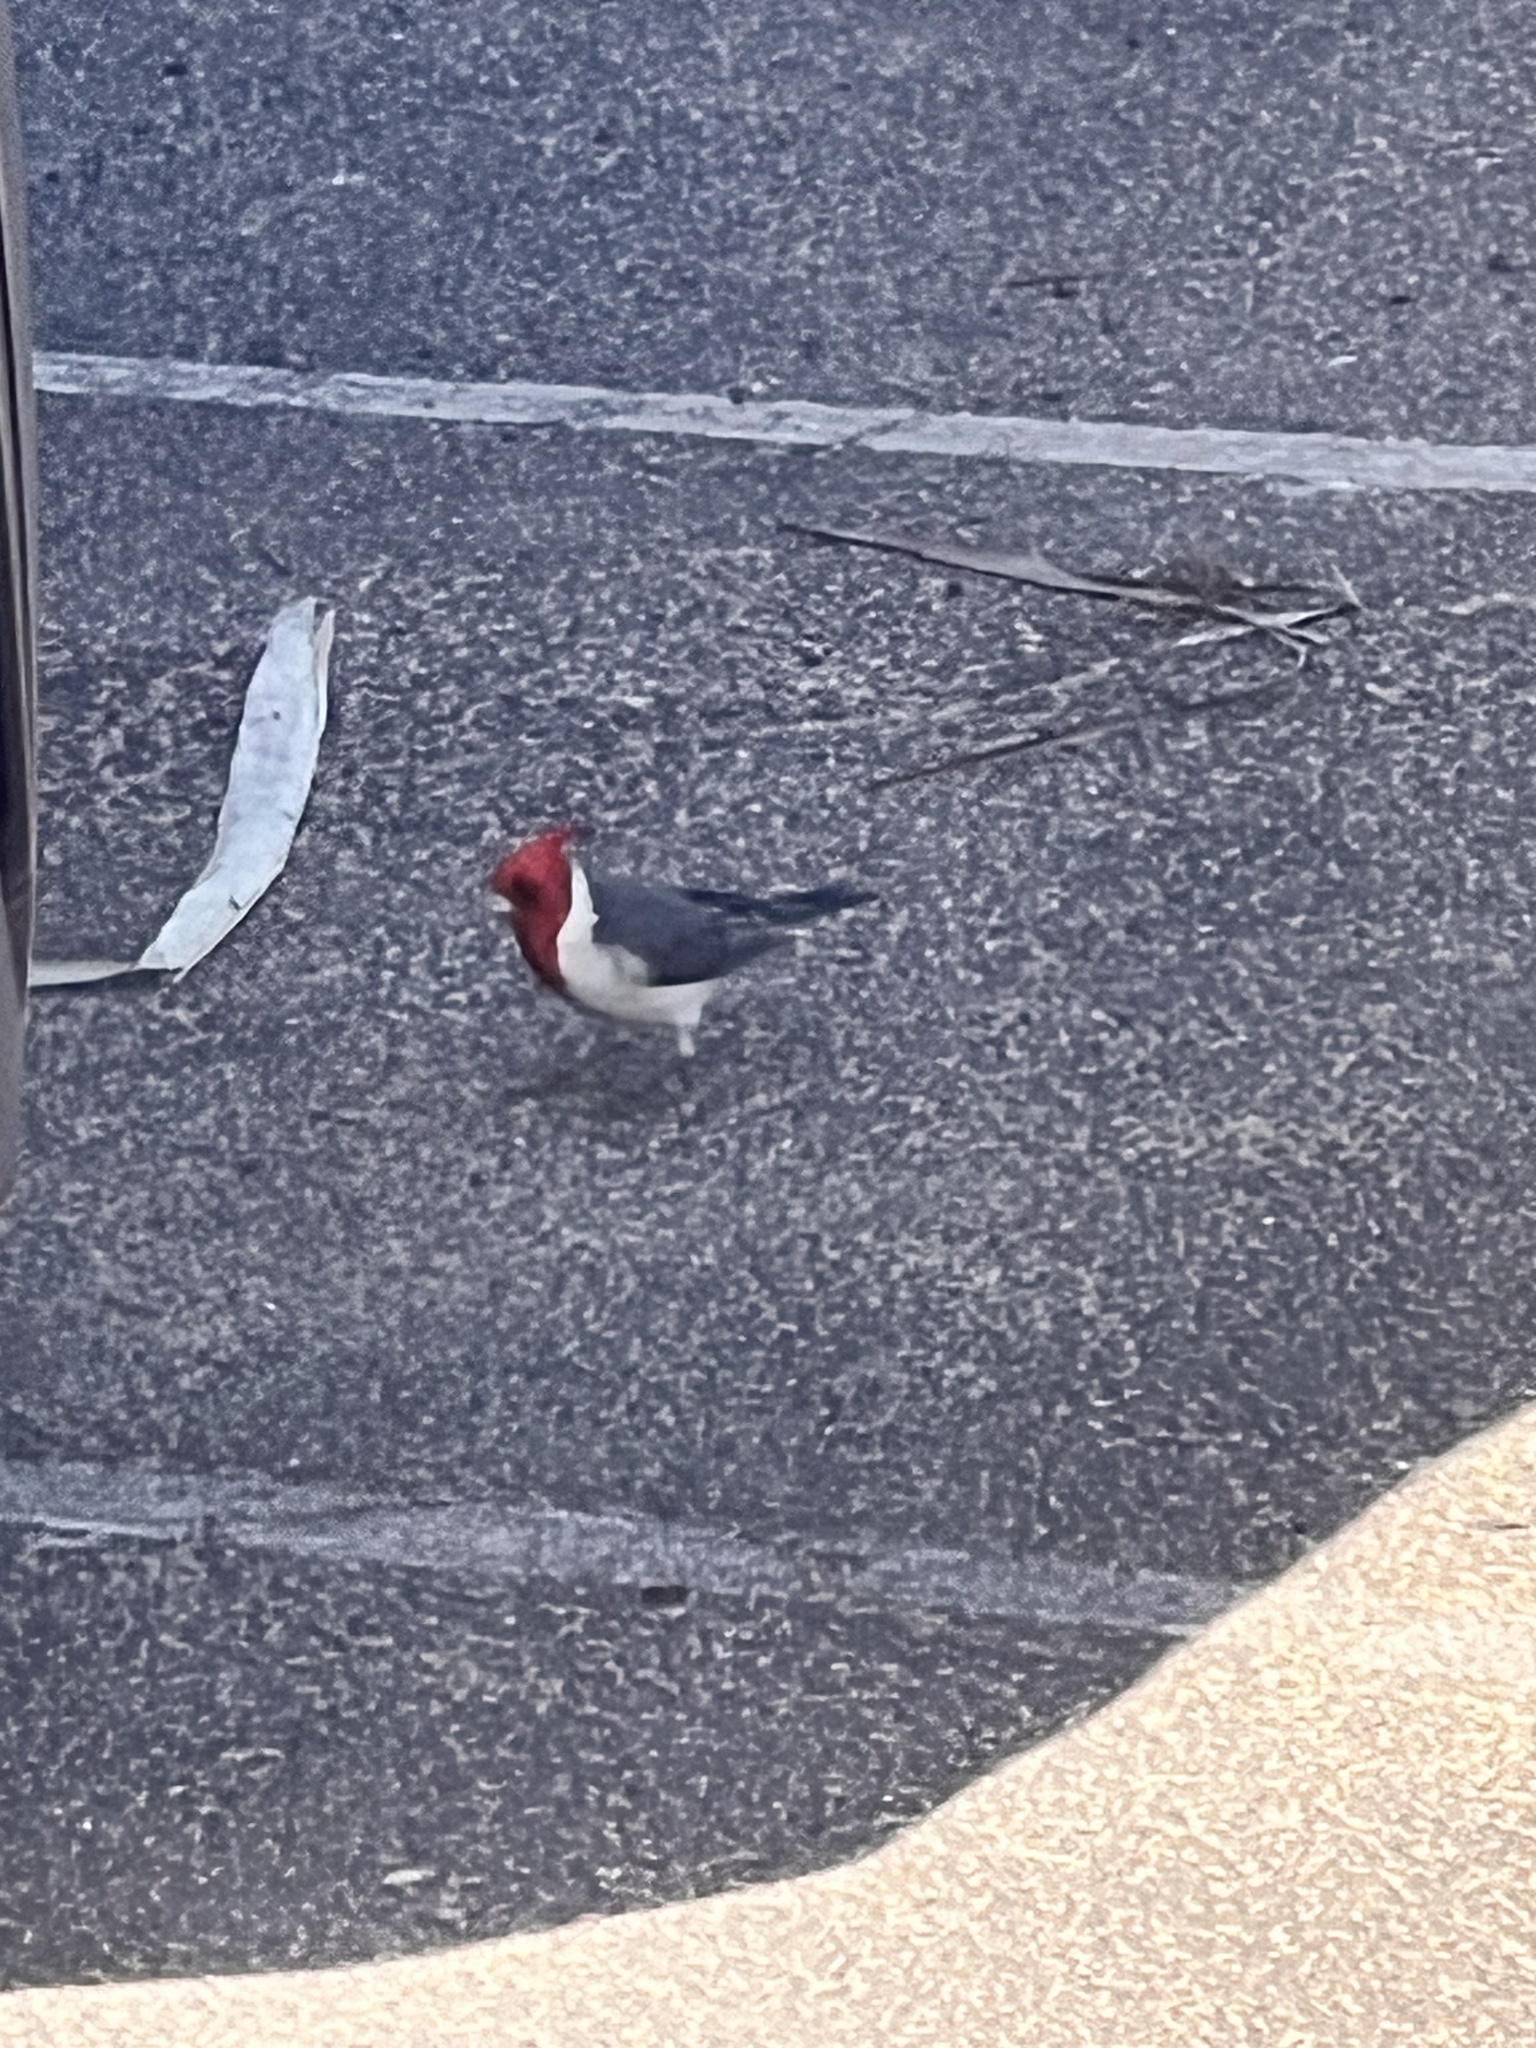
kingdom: Animalia
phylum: Chordata
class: Aves
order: Passeriformes
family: Thraupidae
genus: Paroaria
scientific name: Paroaria coronata
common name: Red-crested cardinal
